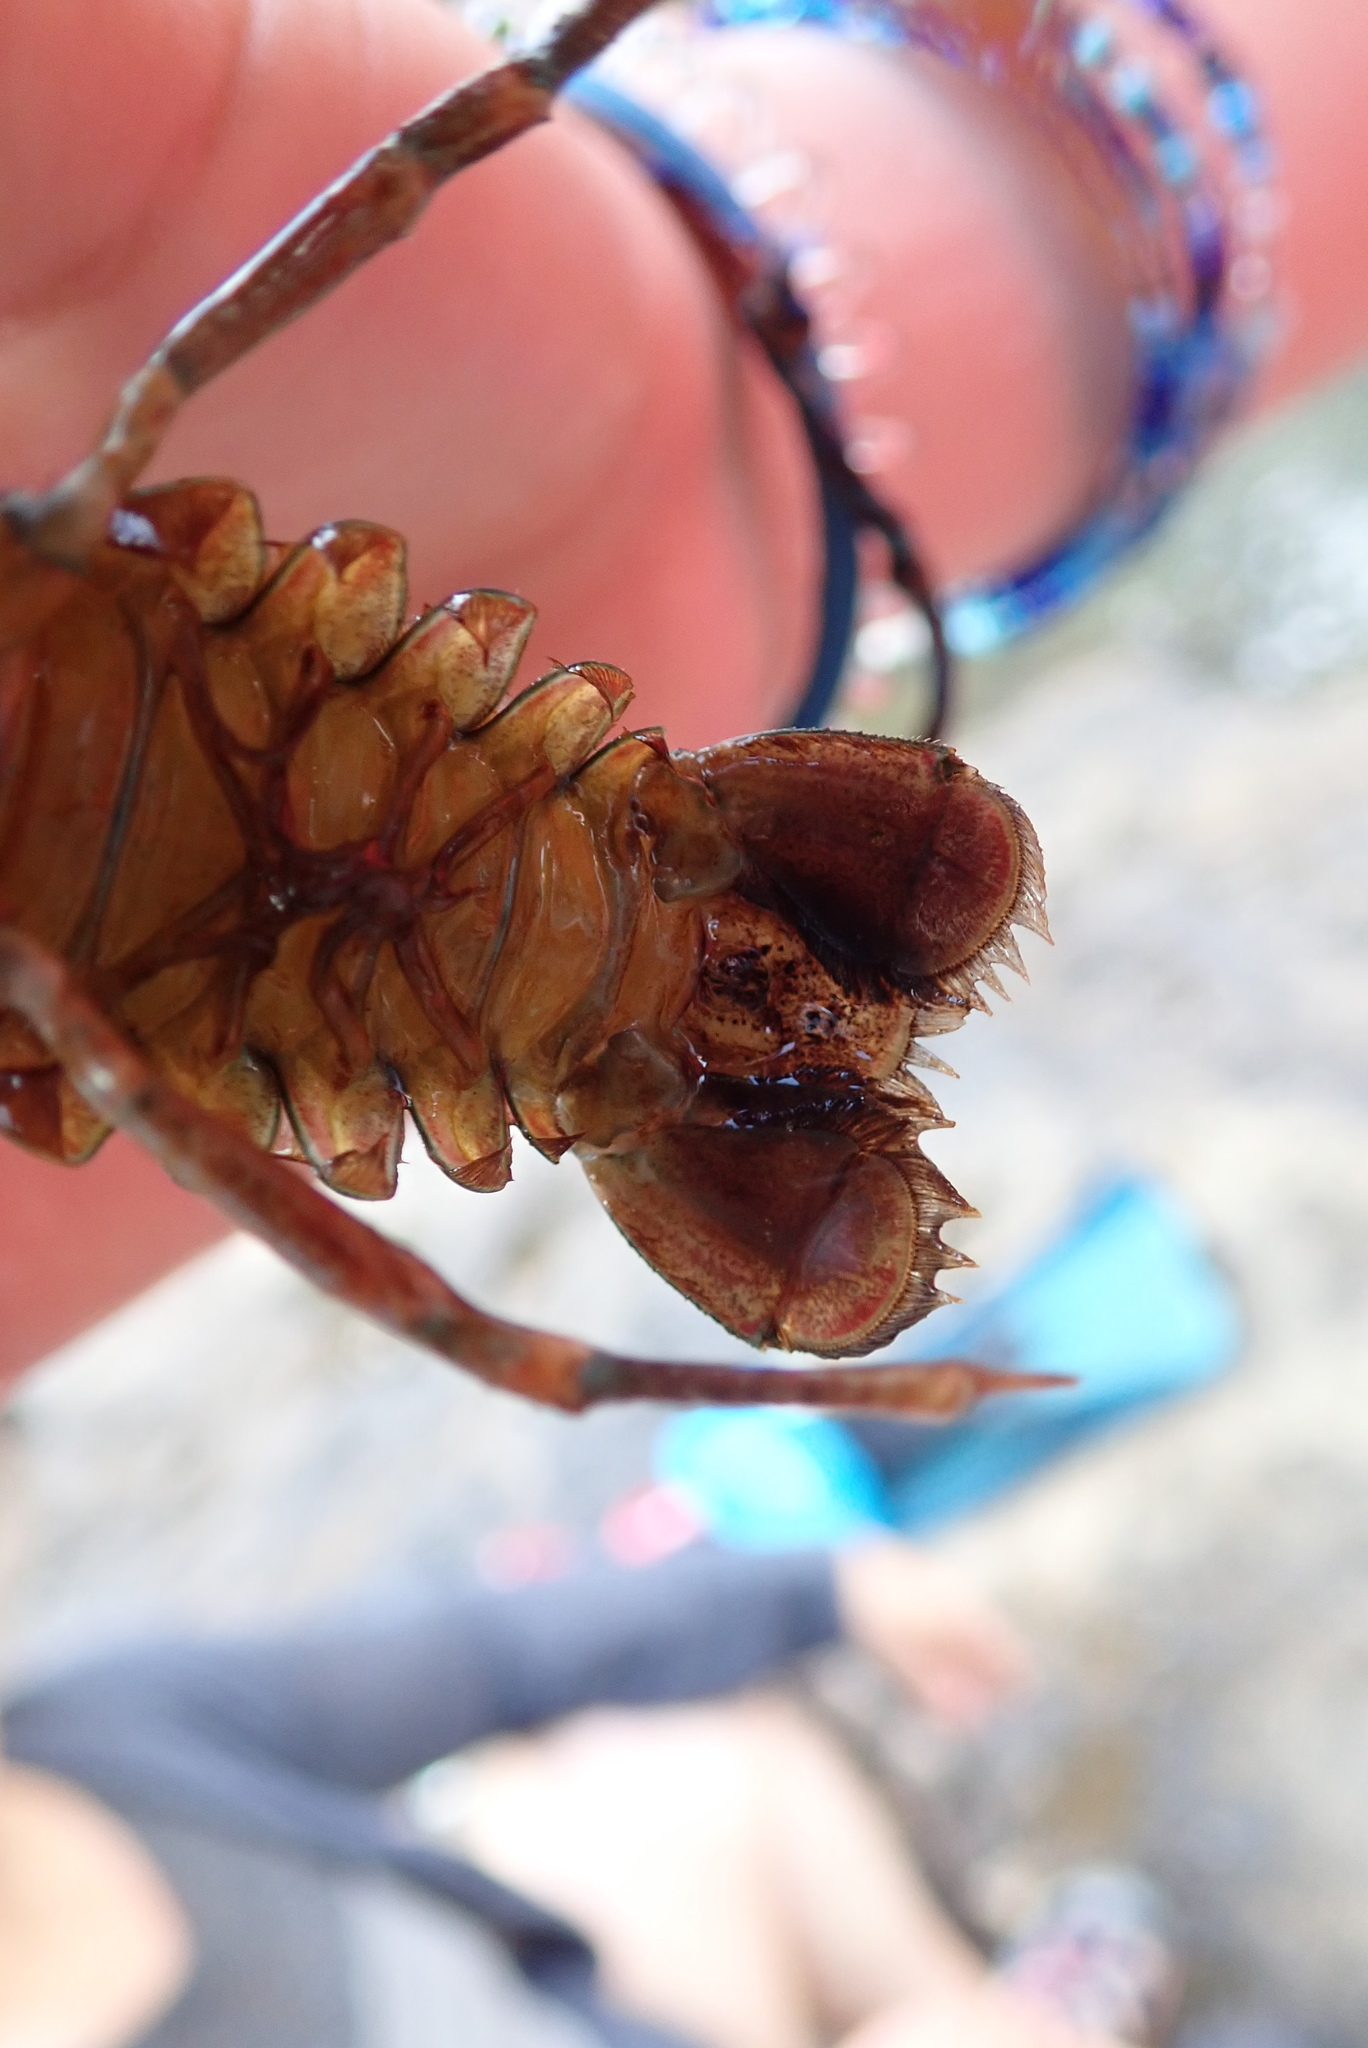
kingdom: Animalia
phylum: Arthropoda
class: Malacostraca
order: Decapoda
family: Astacidae
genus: Pacifastacus
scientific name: Pacifastacus leniusculus
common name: Signal crayfish
